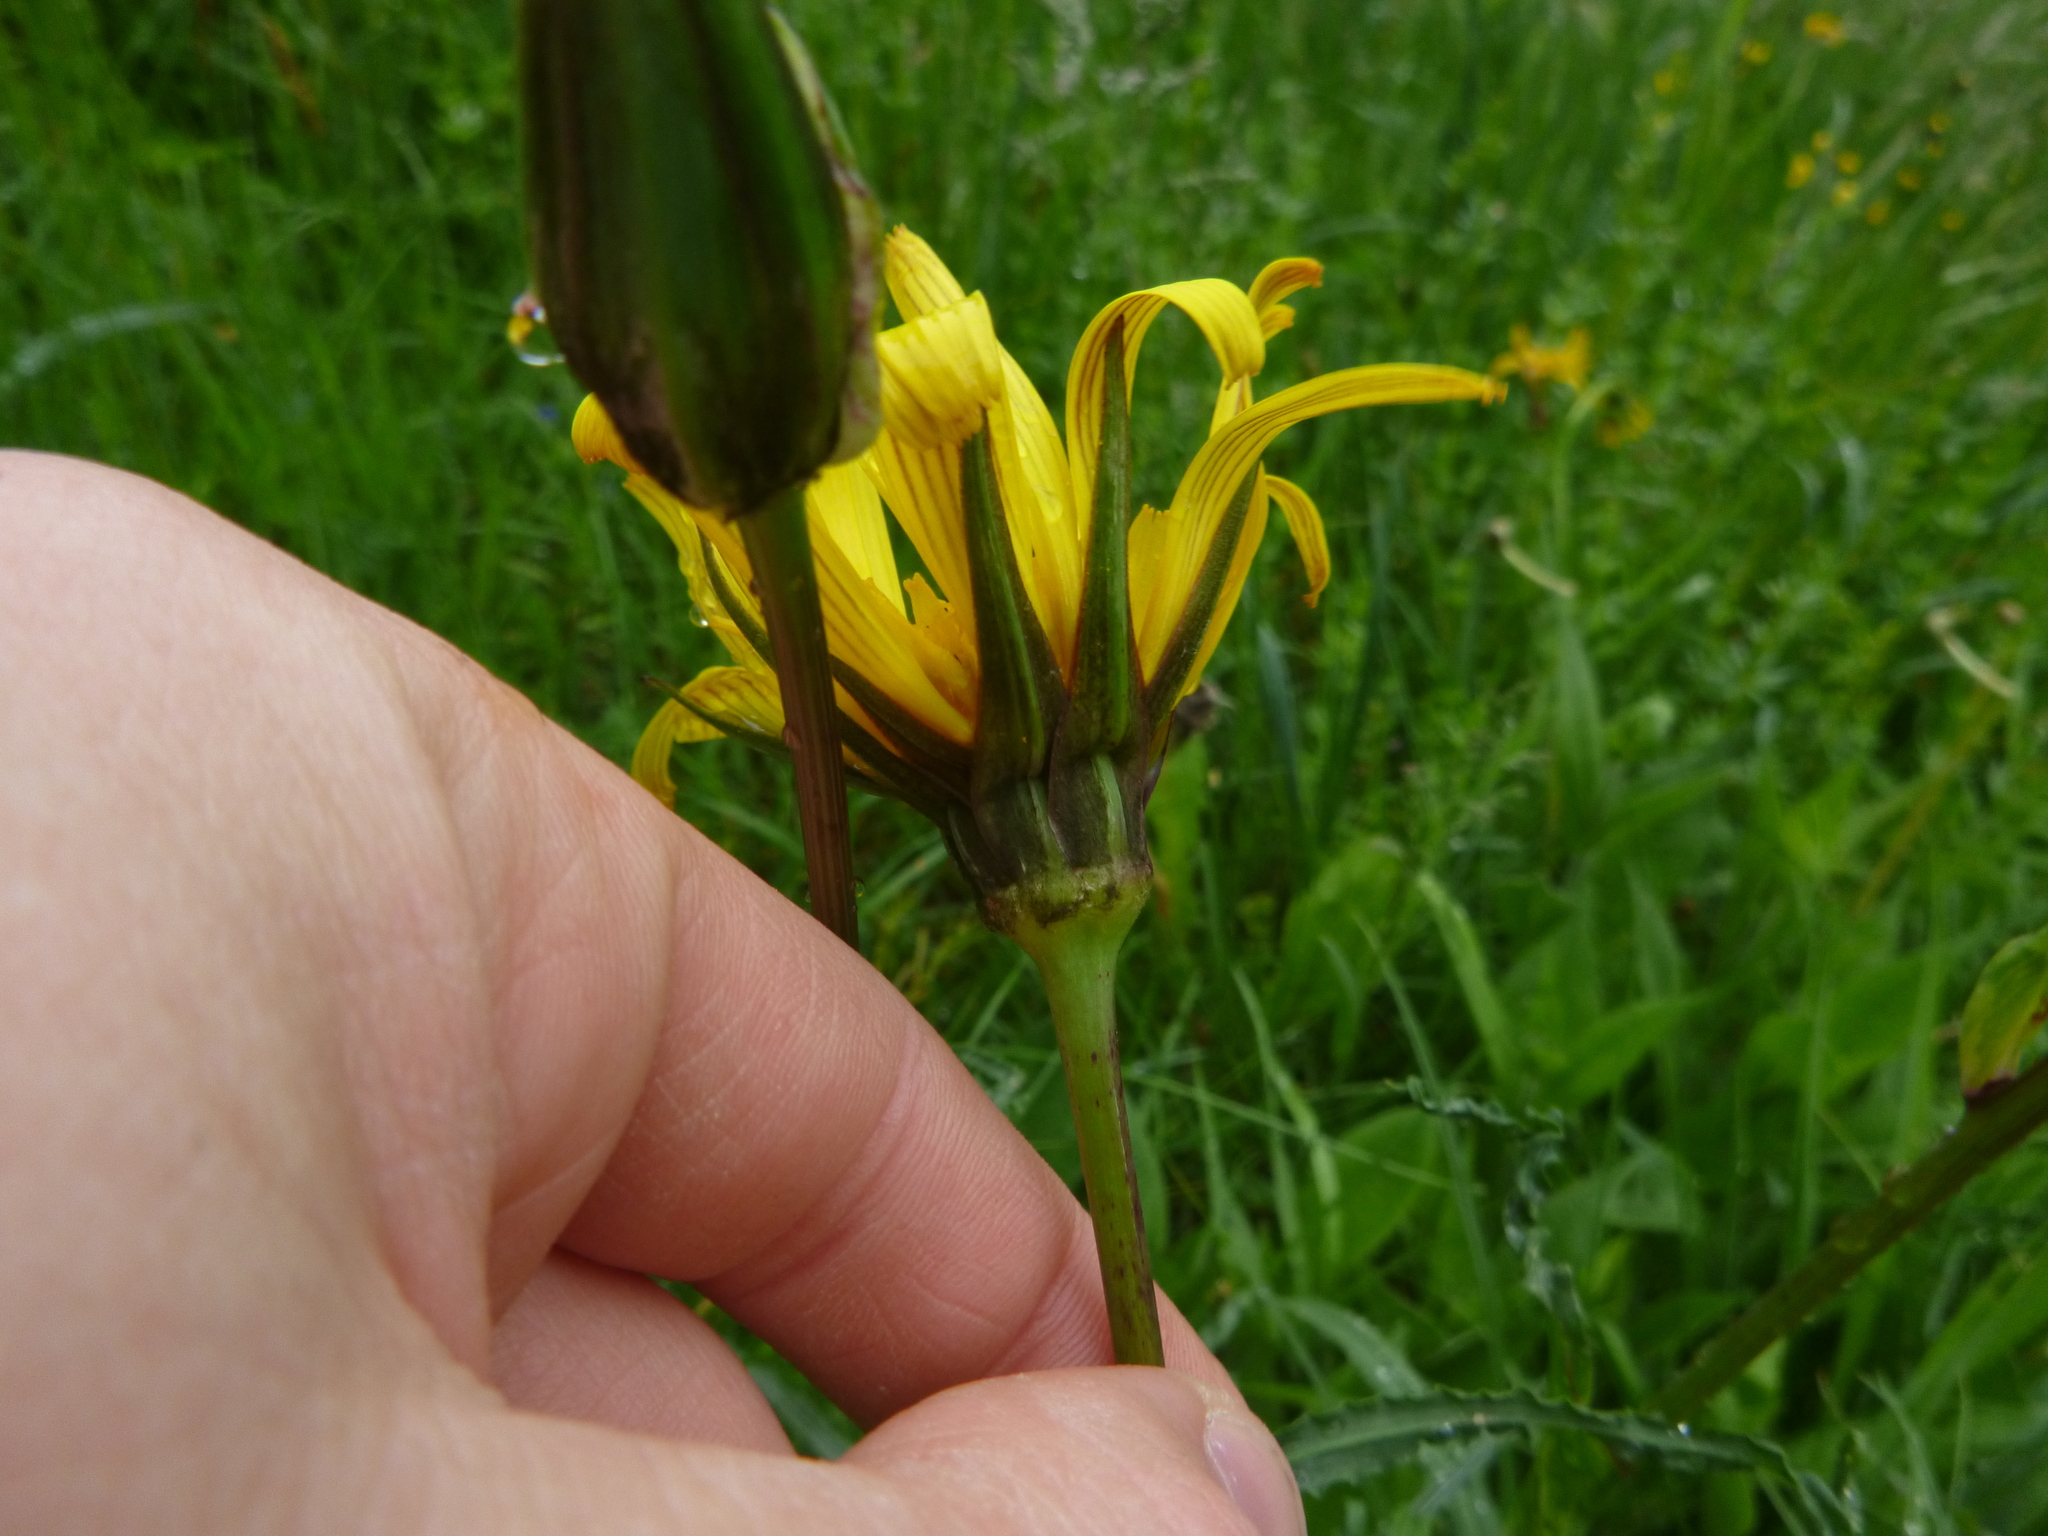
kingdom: Plantae
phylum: Tracheophyta
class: Magnoliopsida
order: Asterales
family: Asteraceae
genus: Tragopogon
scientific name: Tragopogon orientalis
